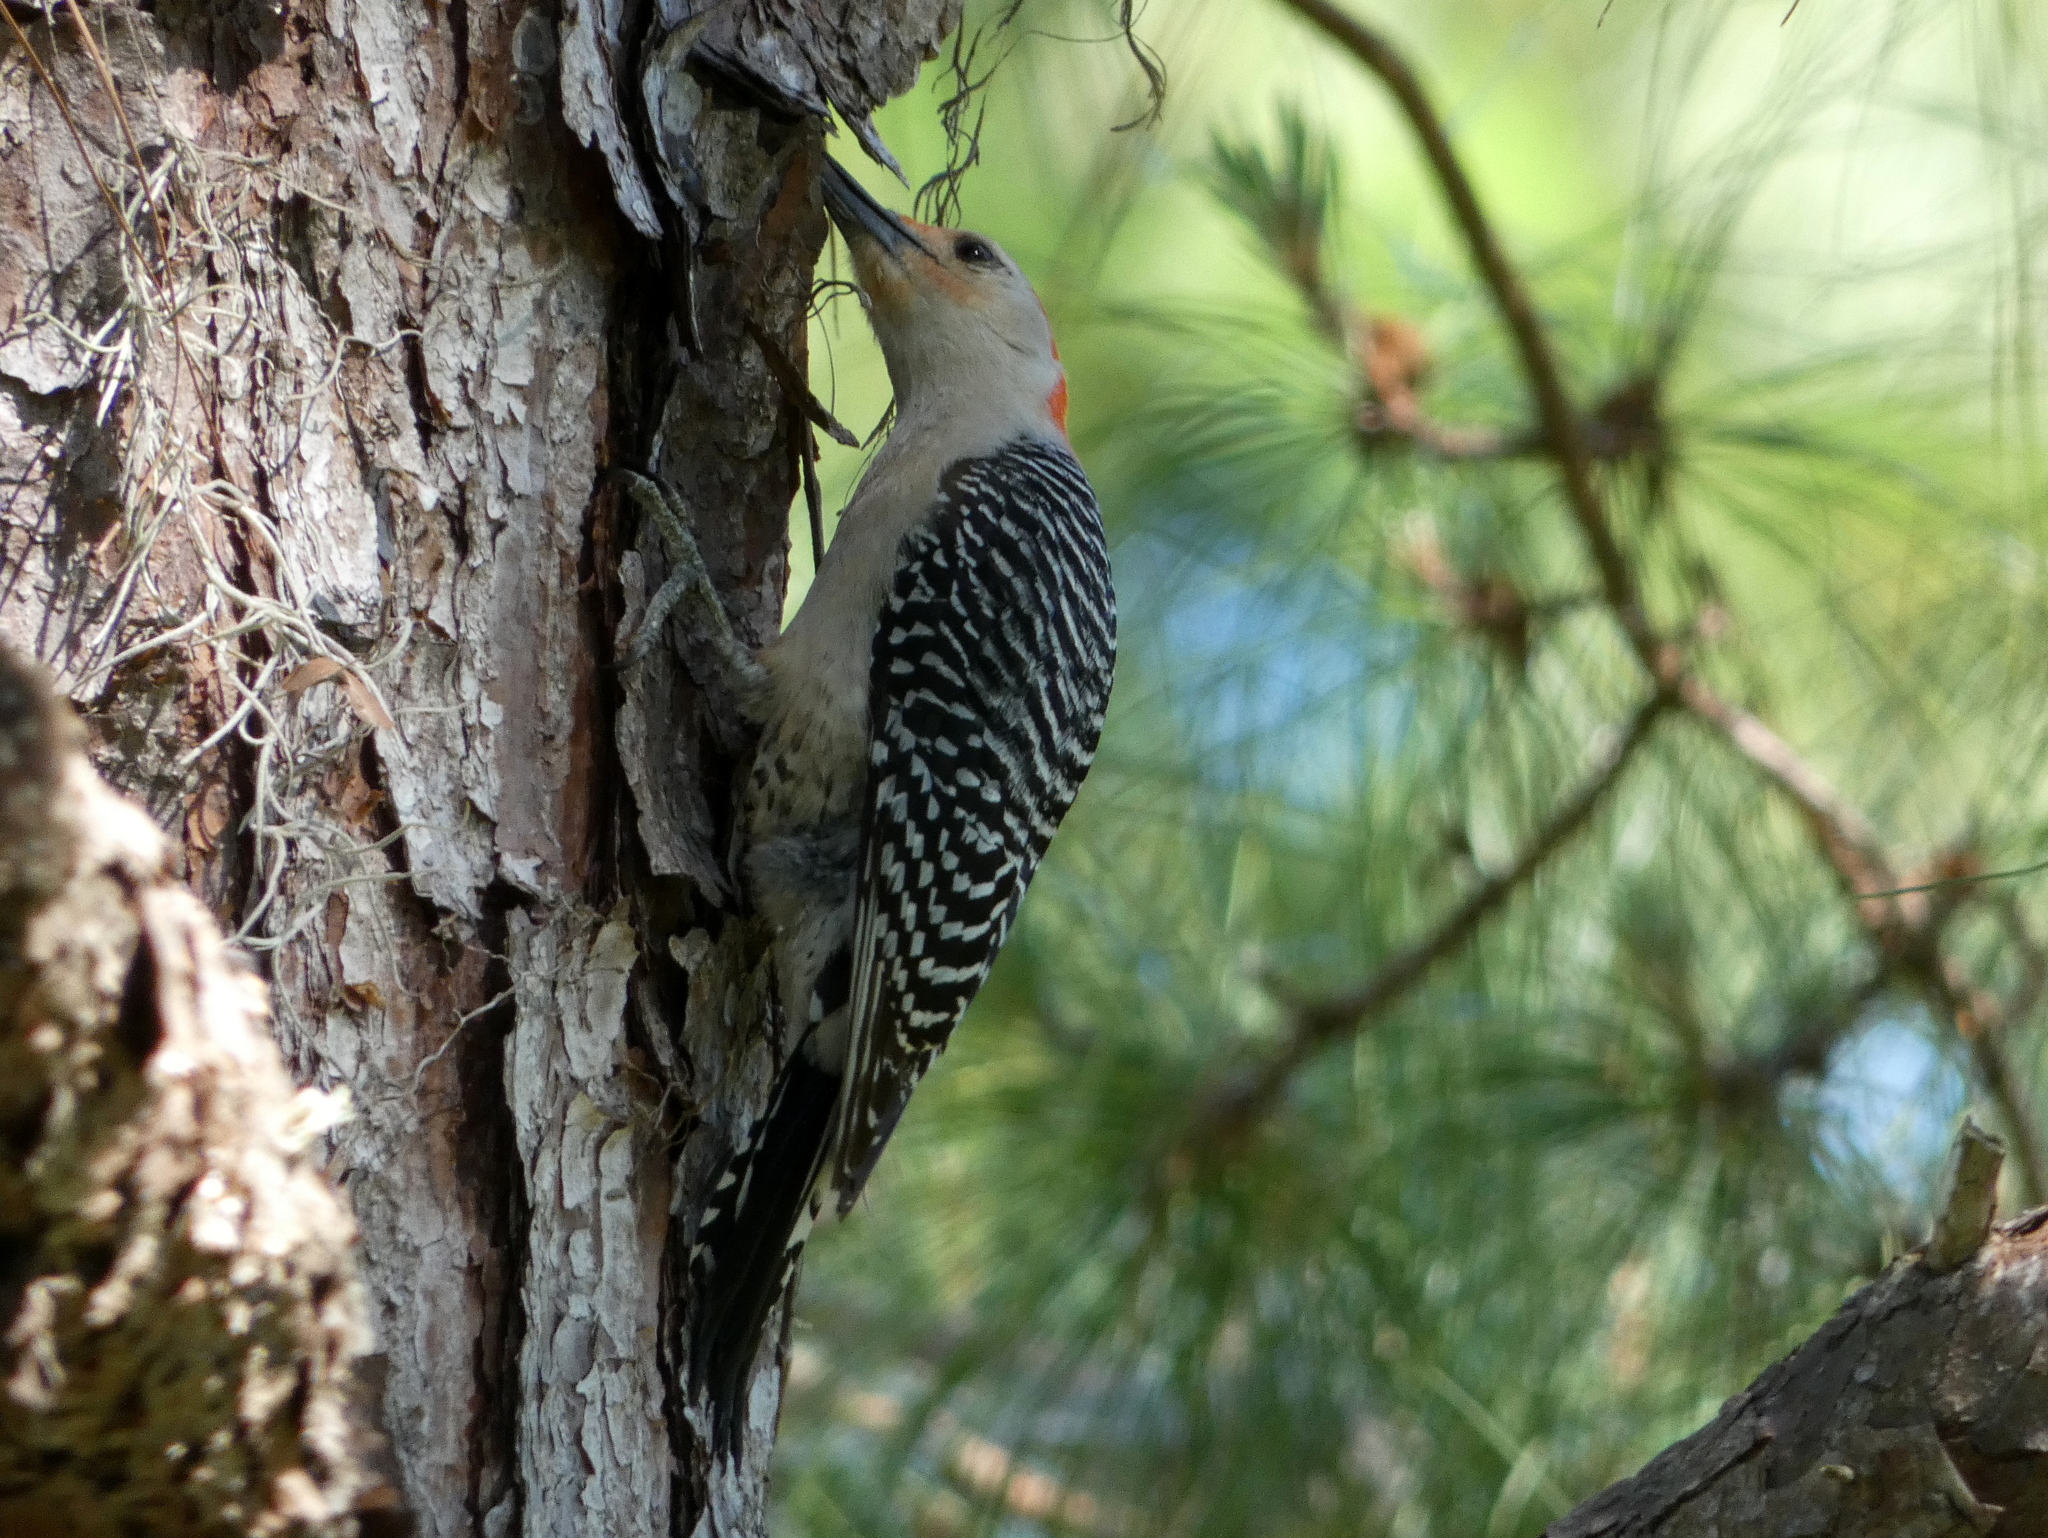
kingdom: Animalia
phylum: Chordata
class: Aves
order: Piciformes
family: Picidae
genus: Melanerpes
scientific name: Melanerpes carolinus
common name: Red-bellied woodpecker
